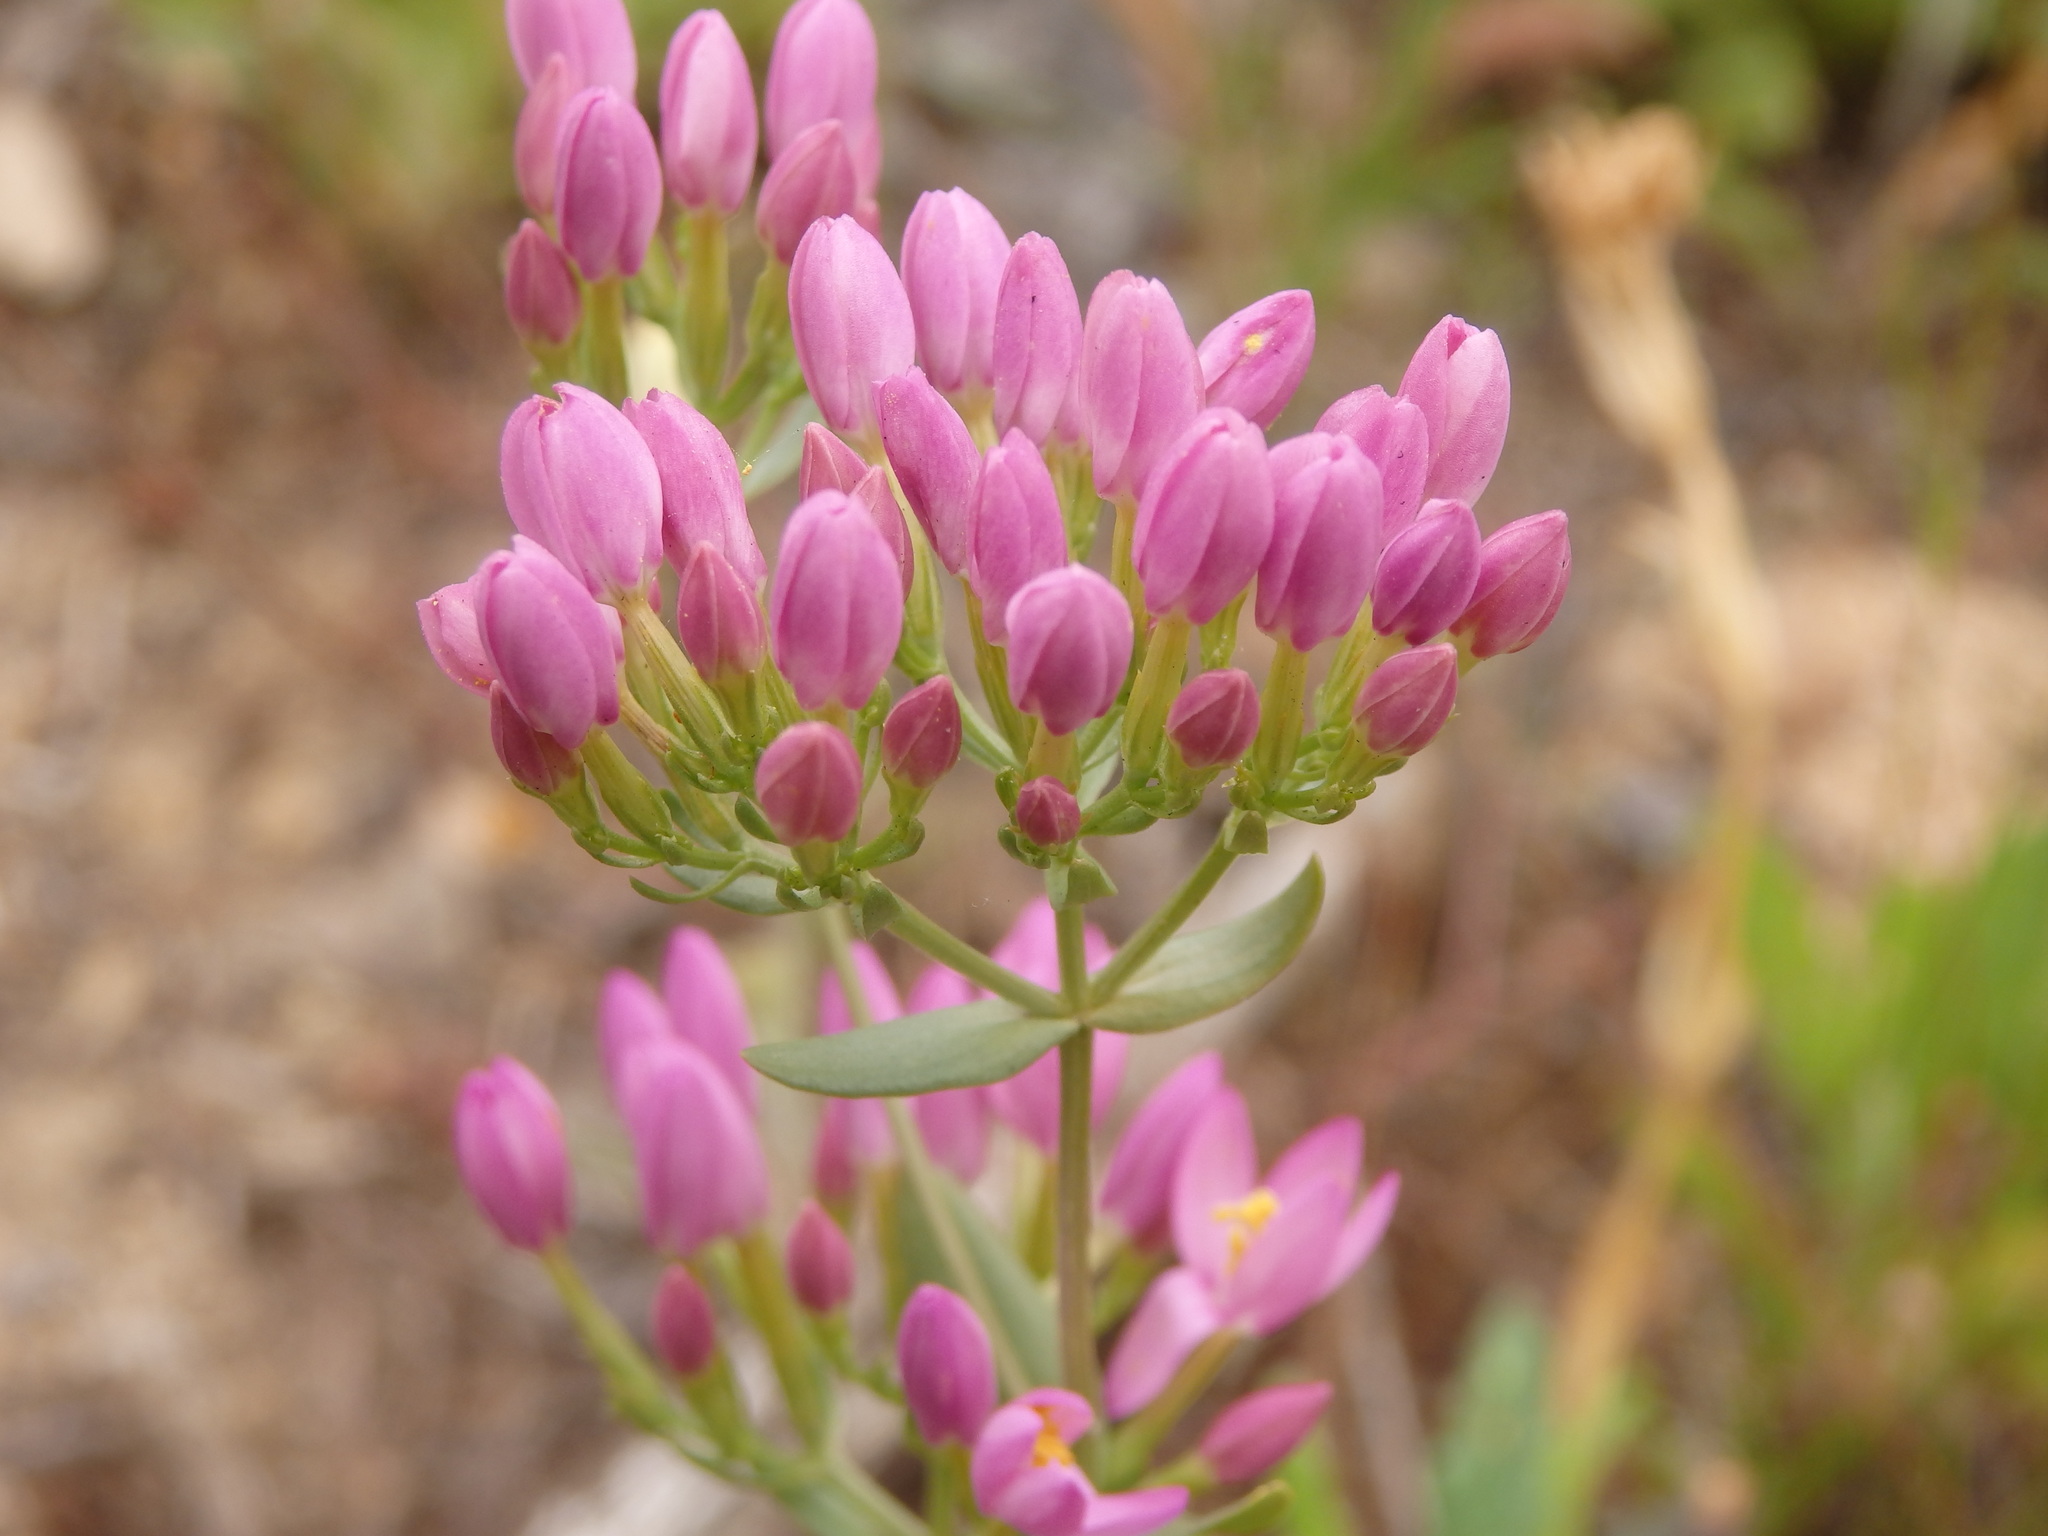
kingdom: Plantae
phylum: Tracheophyta
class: Magnoliopsida
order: Gentianales
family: Gentianaceae
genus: Centaurium
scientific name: Centaurium erythraea
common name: Common centaury
